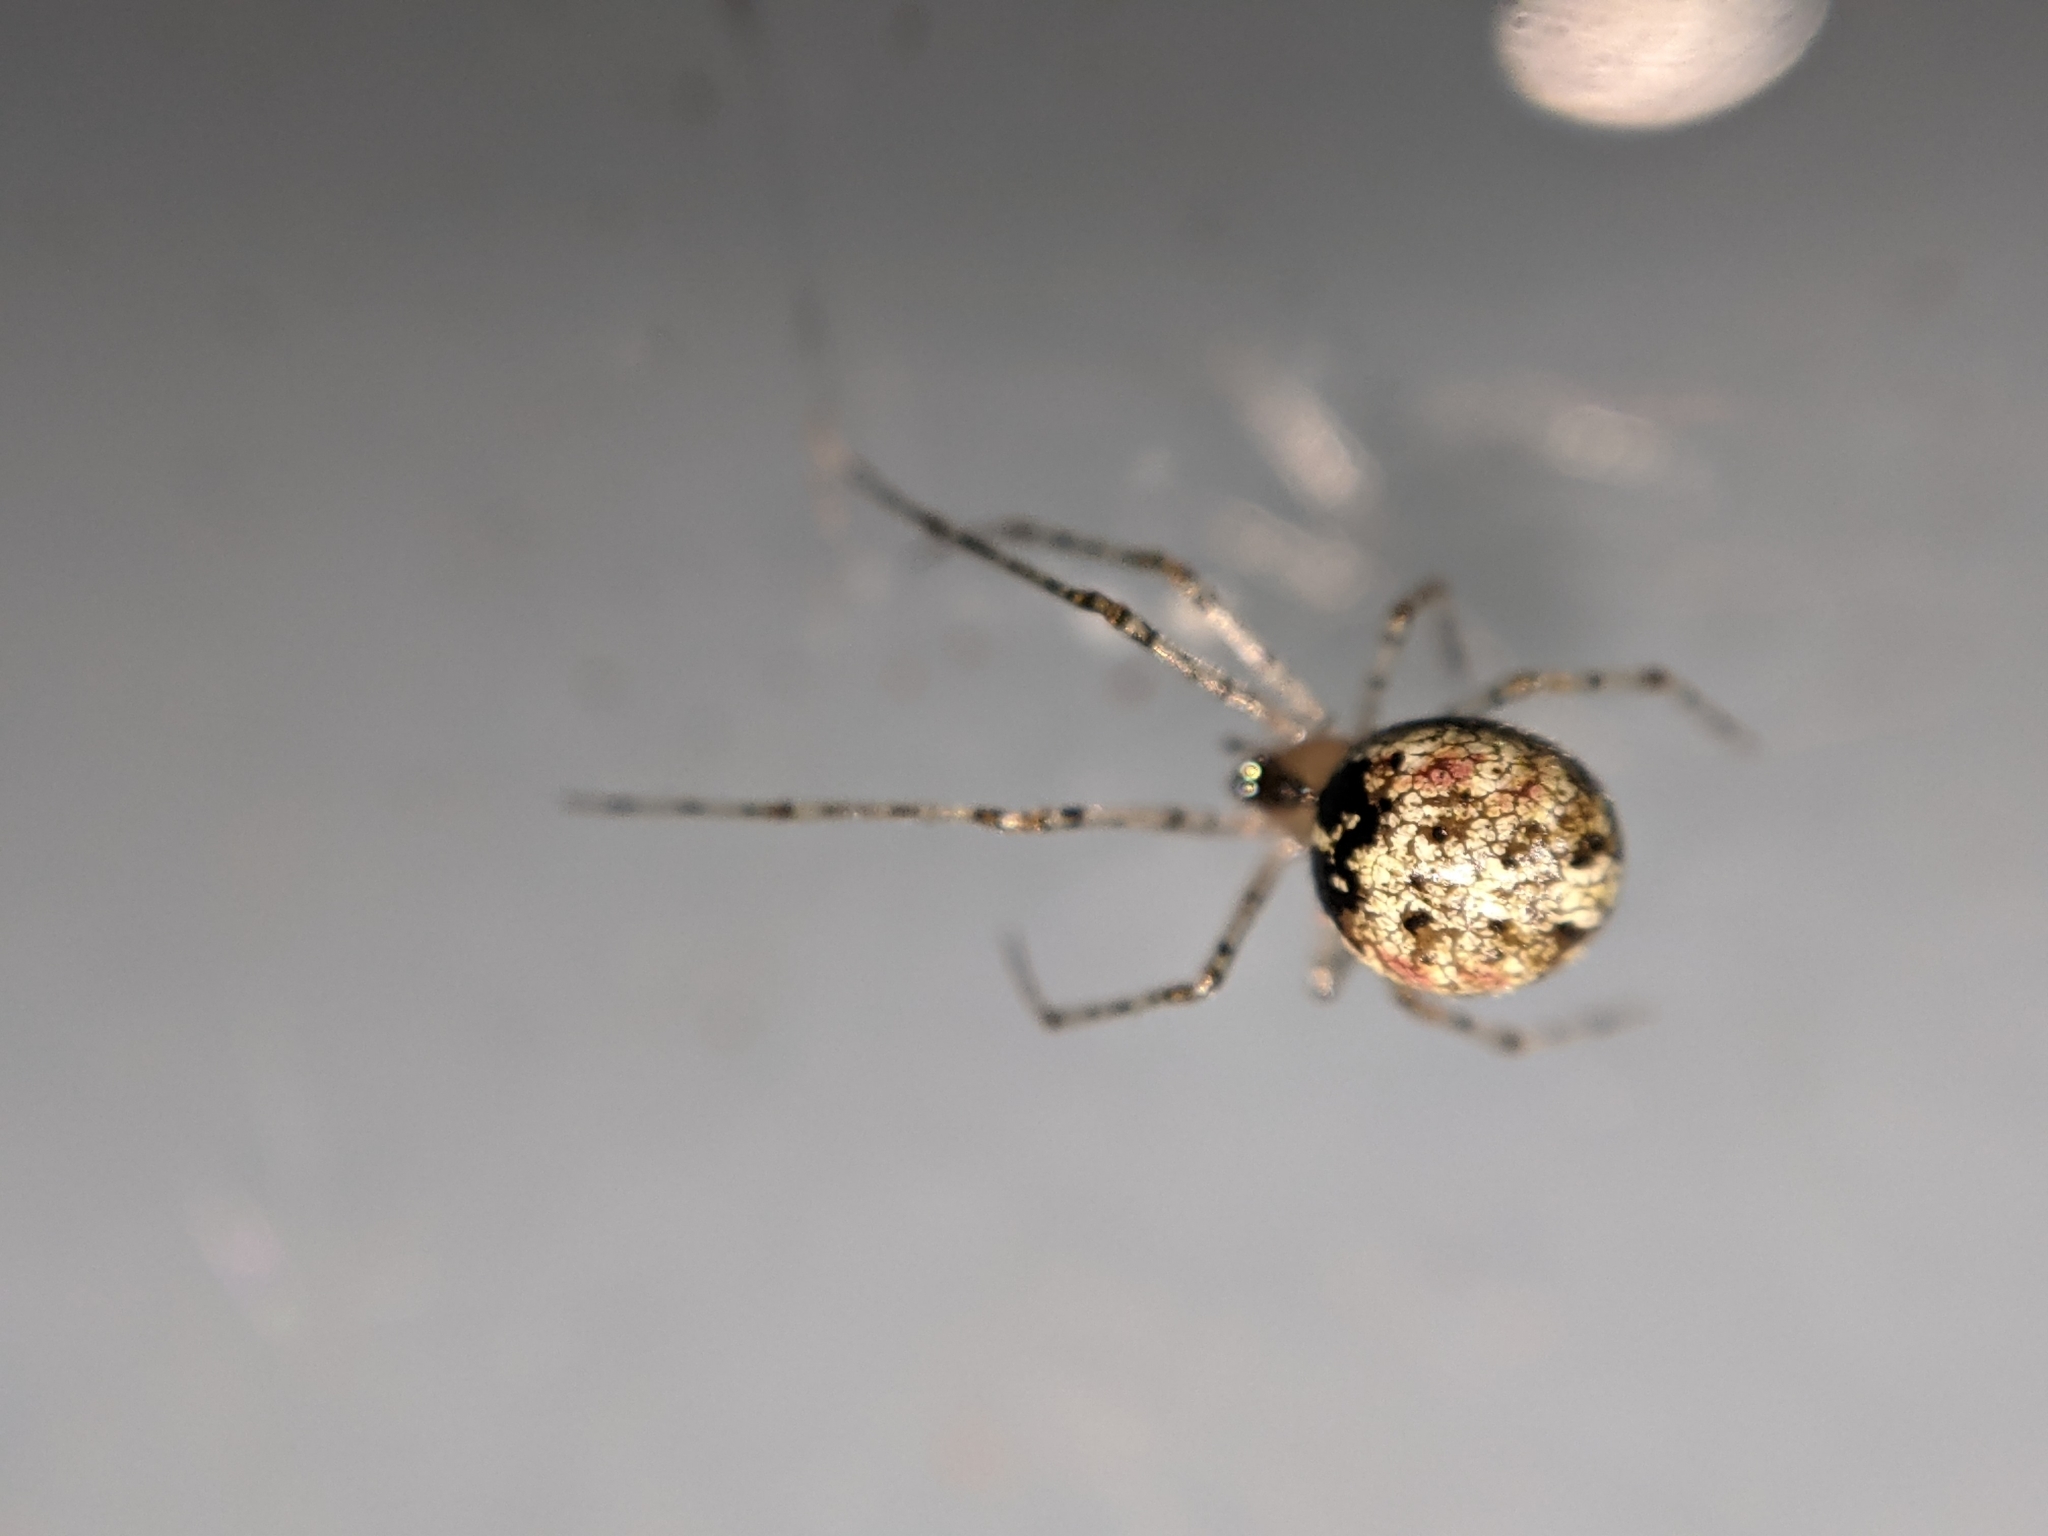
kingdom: Animalia
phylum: Arthropoda
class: Arachnida
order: Araneae
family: Theridiidae
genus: Platnickina
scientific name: Platnickina tincta
